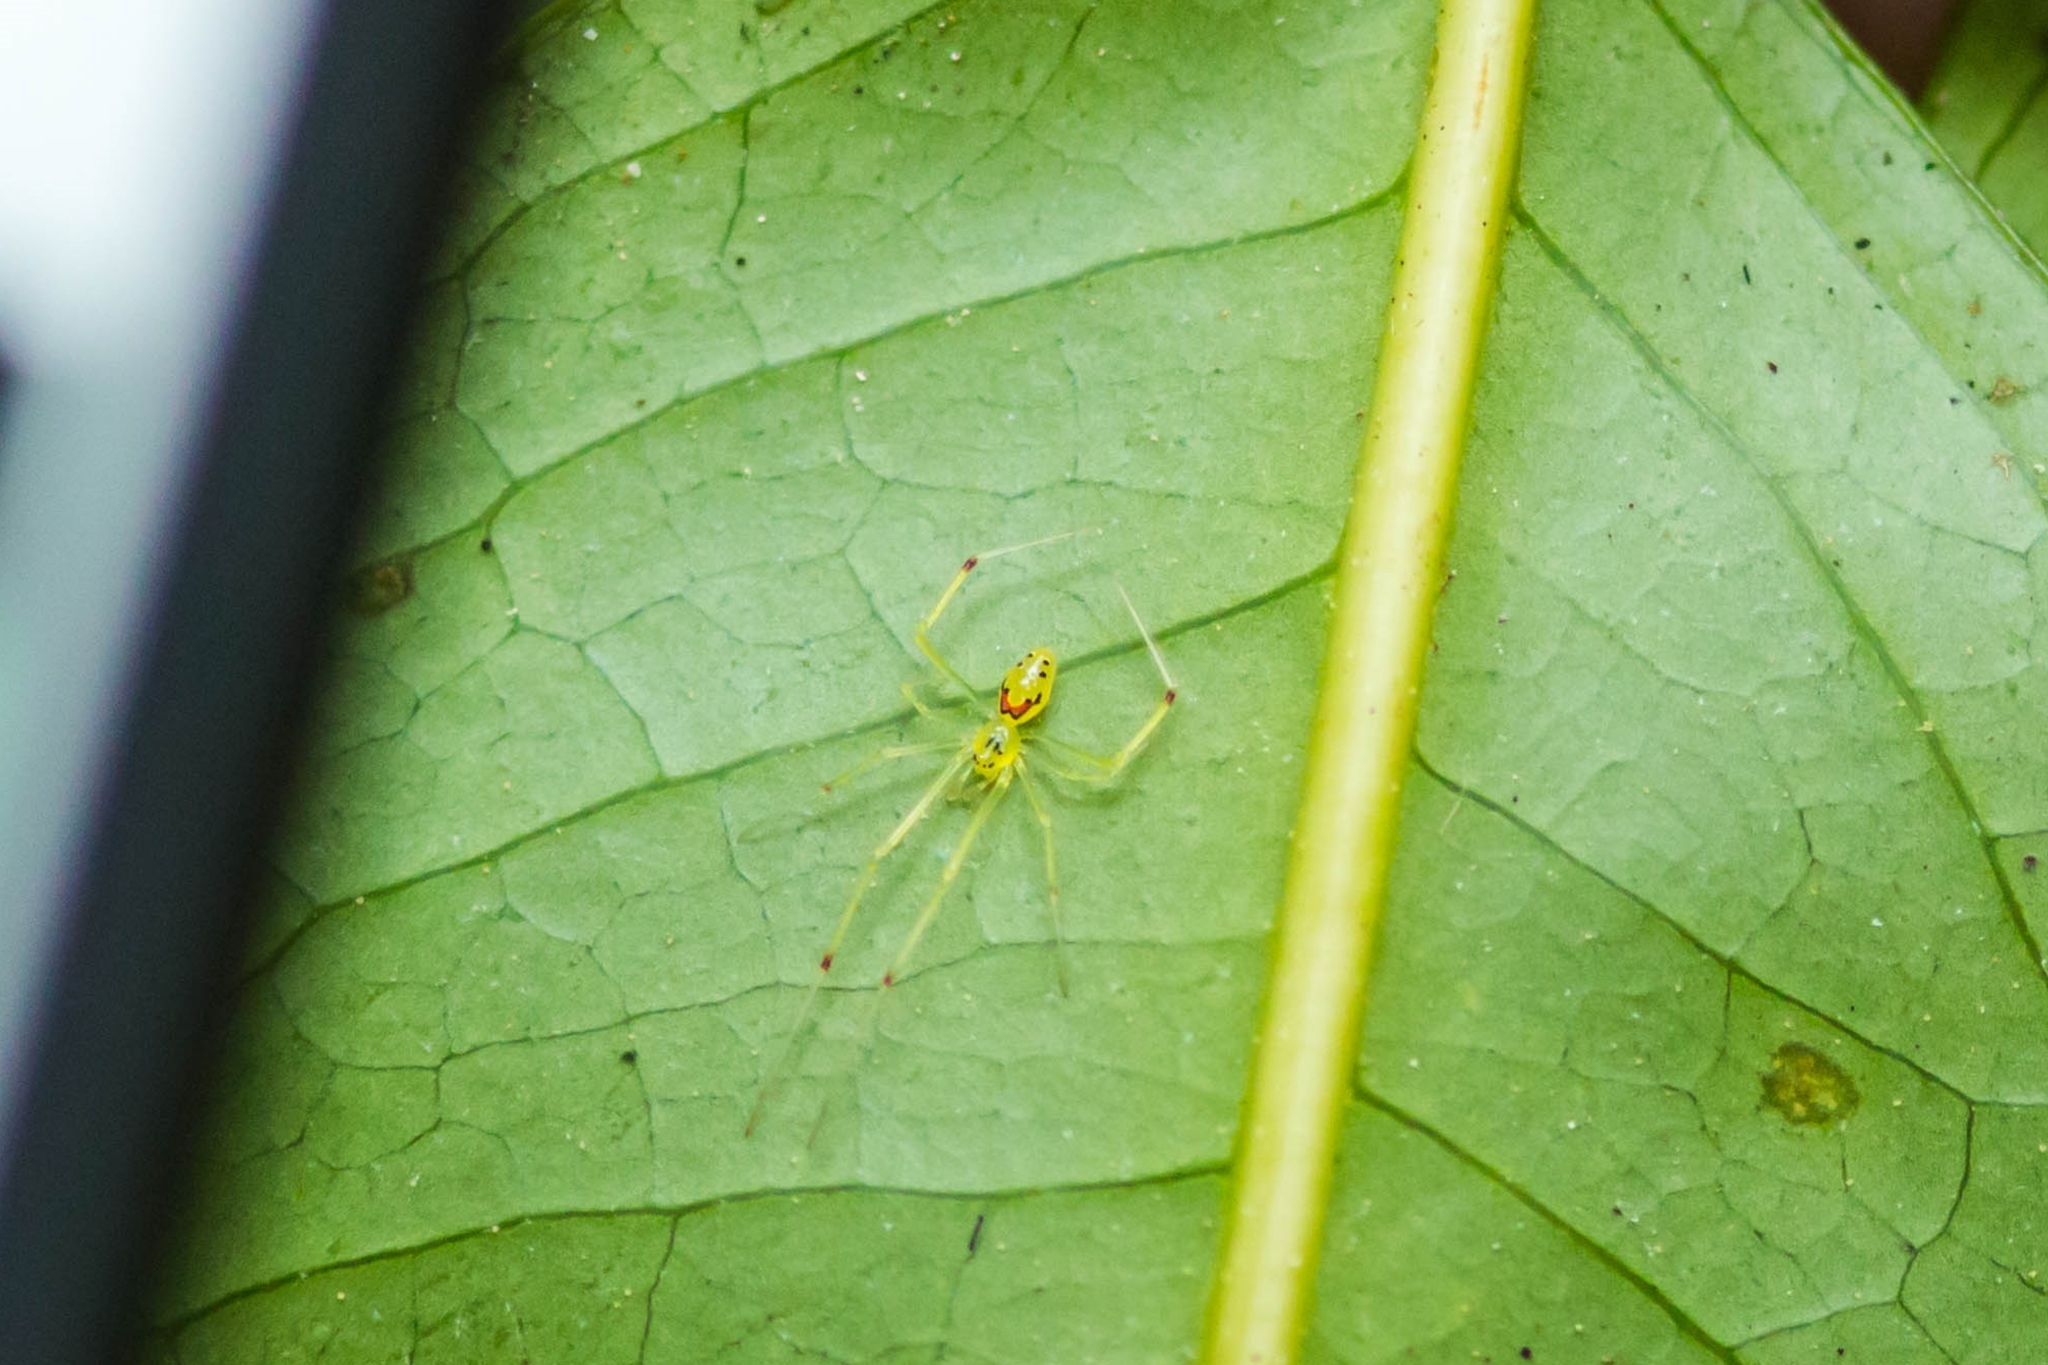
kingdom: Animalia
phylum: Arthropoda
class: Arachnida
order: Araneae
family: Theridiidae
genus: Theridion
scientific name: Theridion grallator
